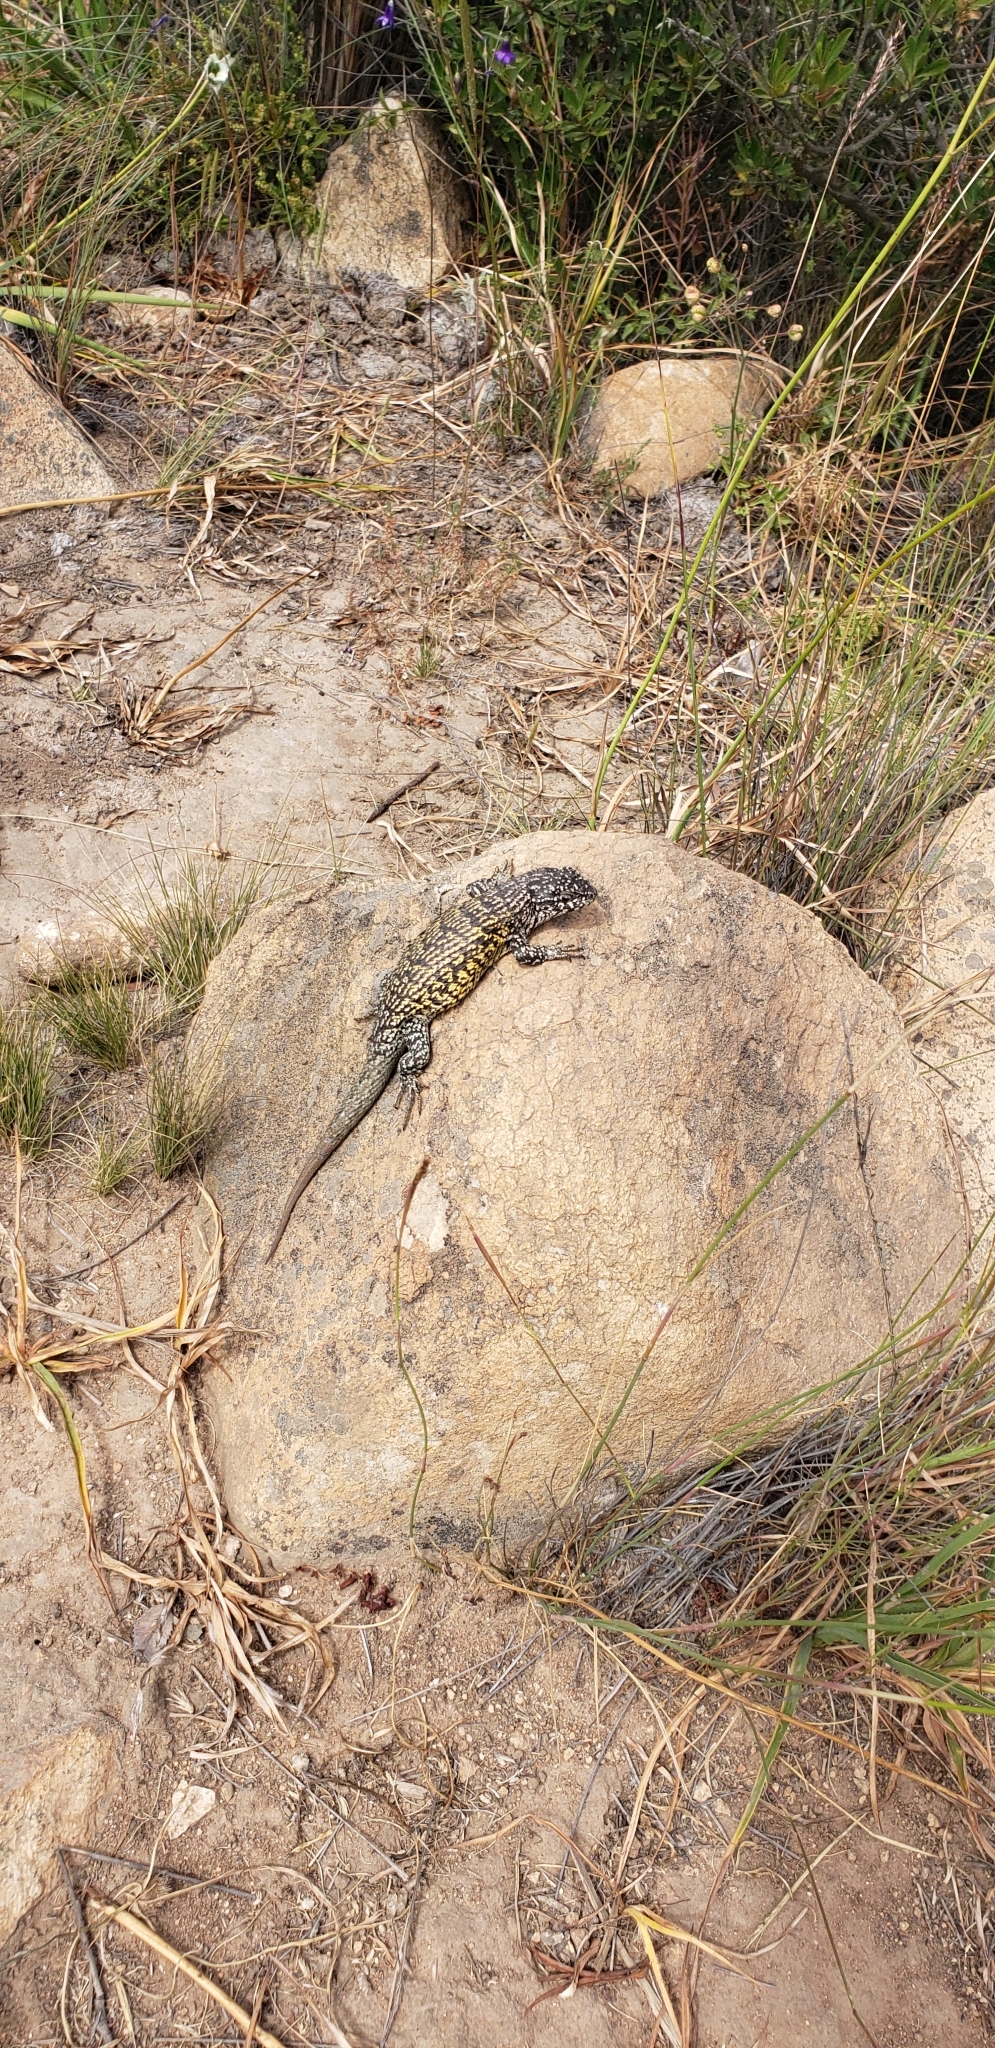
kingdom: Animalia
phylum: Chordata
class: Squamata
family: Liolaemidae
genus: Liolaemus
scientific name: Liolaemus nitidus
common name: Shining tree iguana
